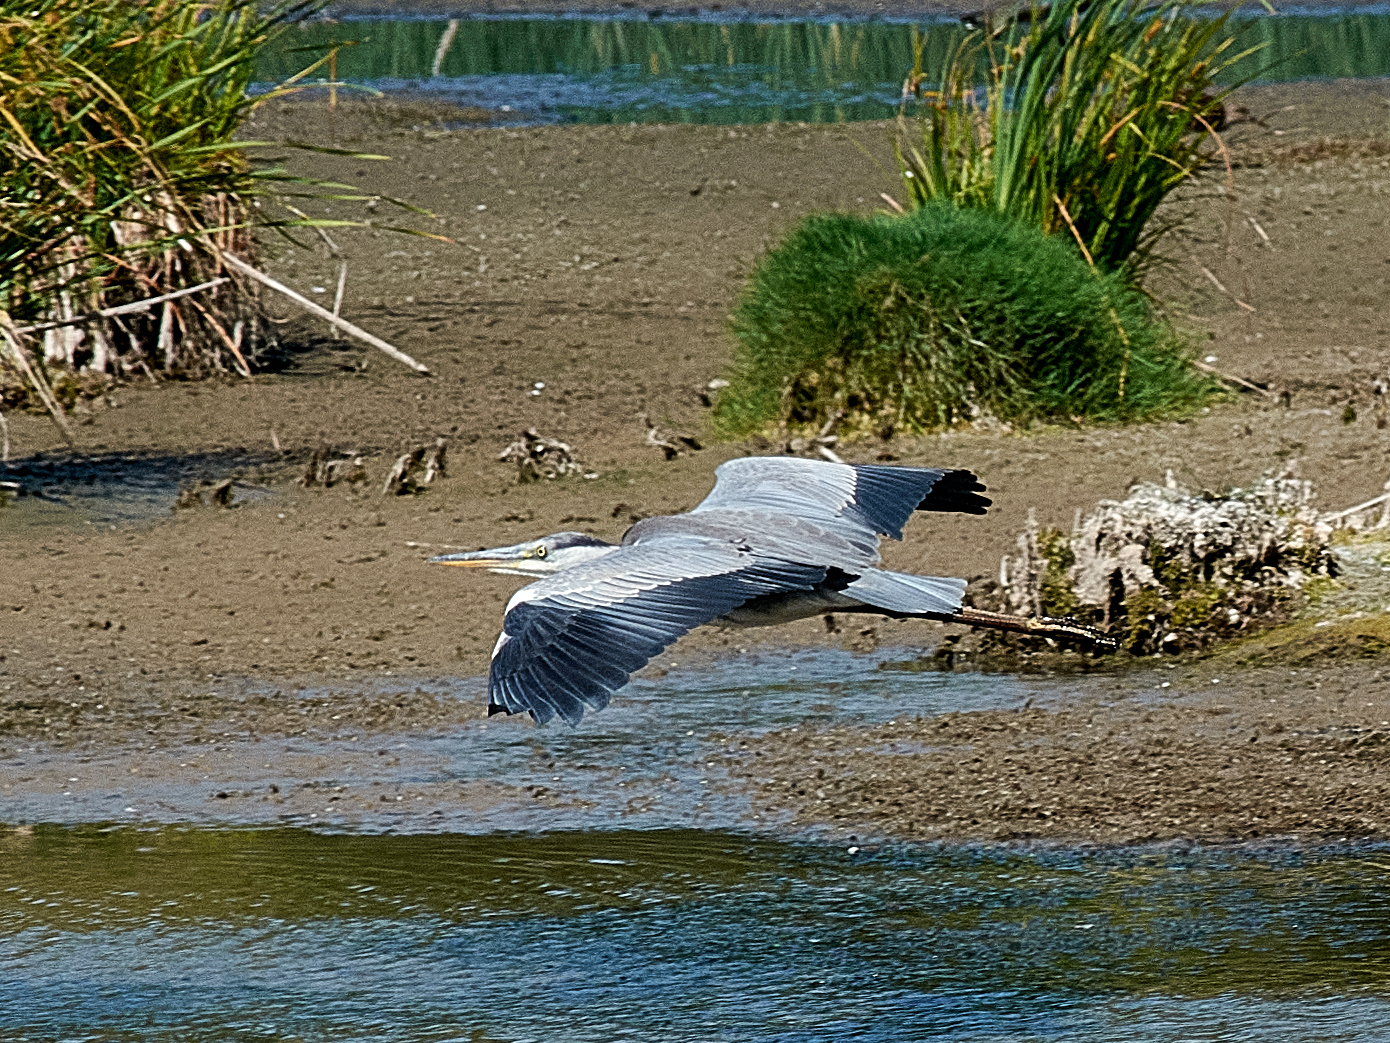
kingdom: Animalia
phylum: Chordata
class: Aves
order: Pelecaniformes
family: Ardeidae
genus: Ardea
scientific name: Ardea cinerea
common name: Grey heron
